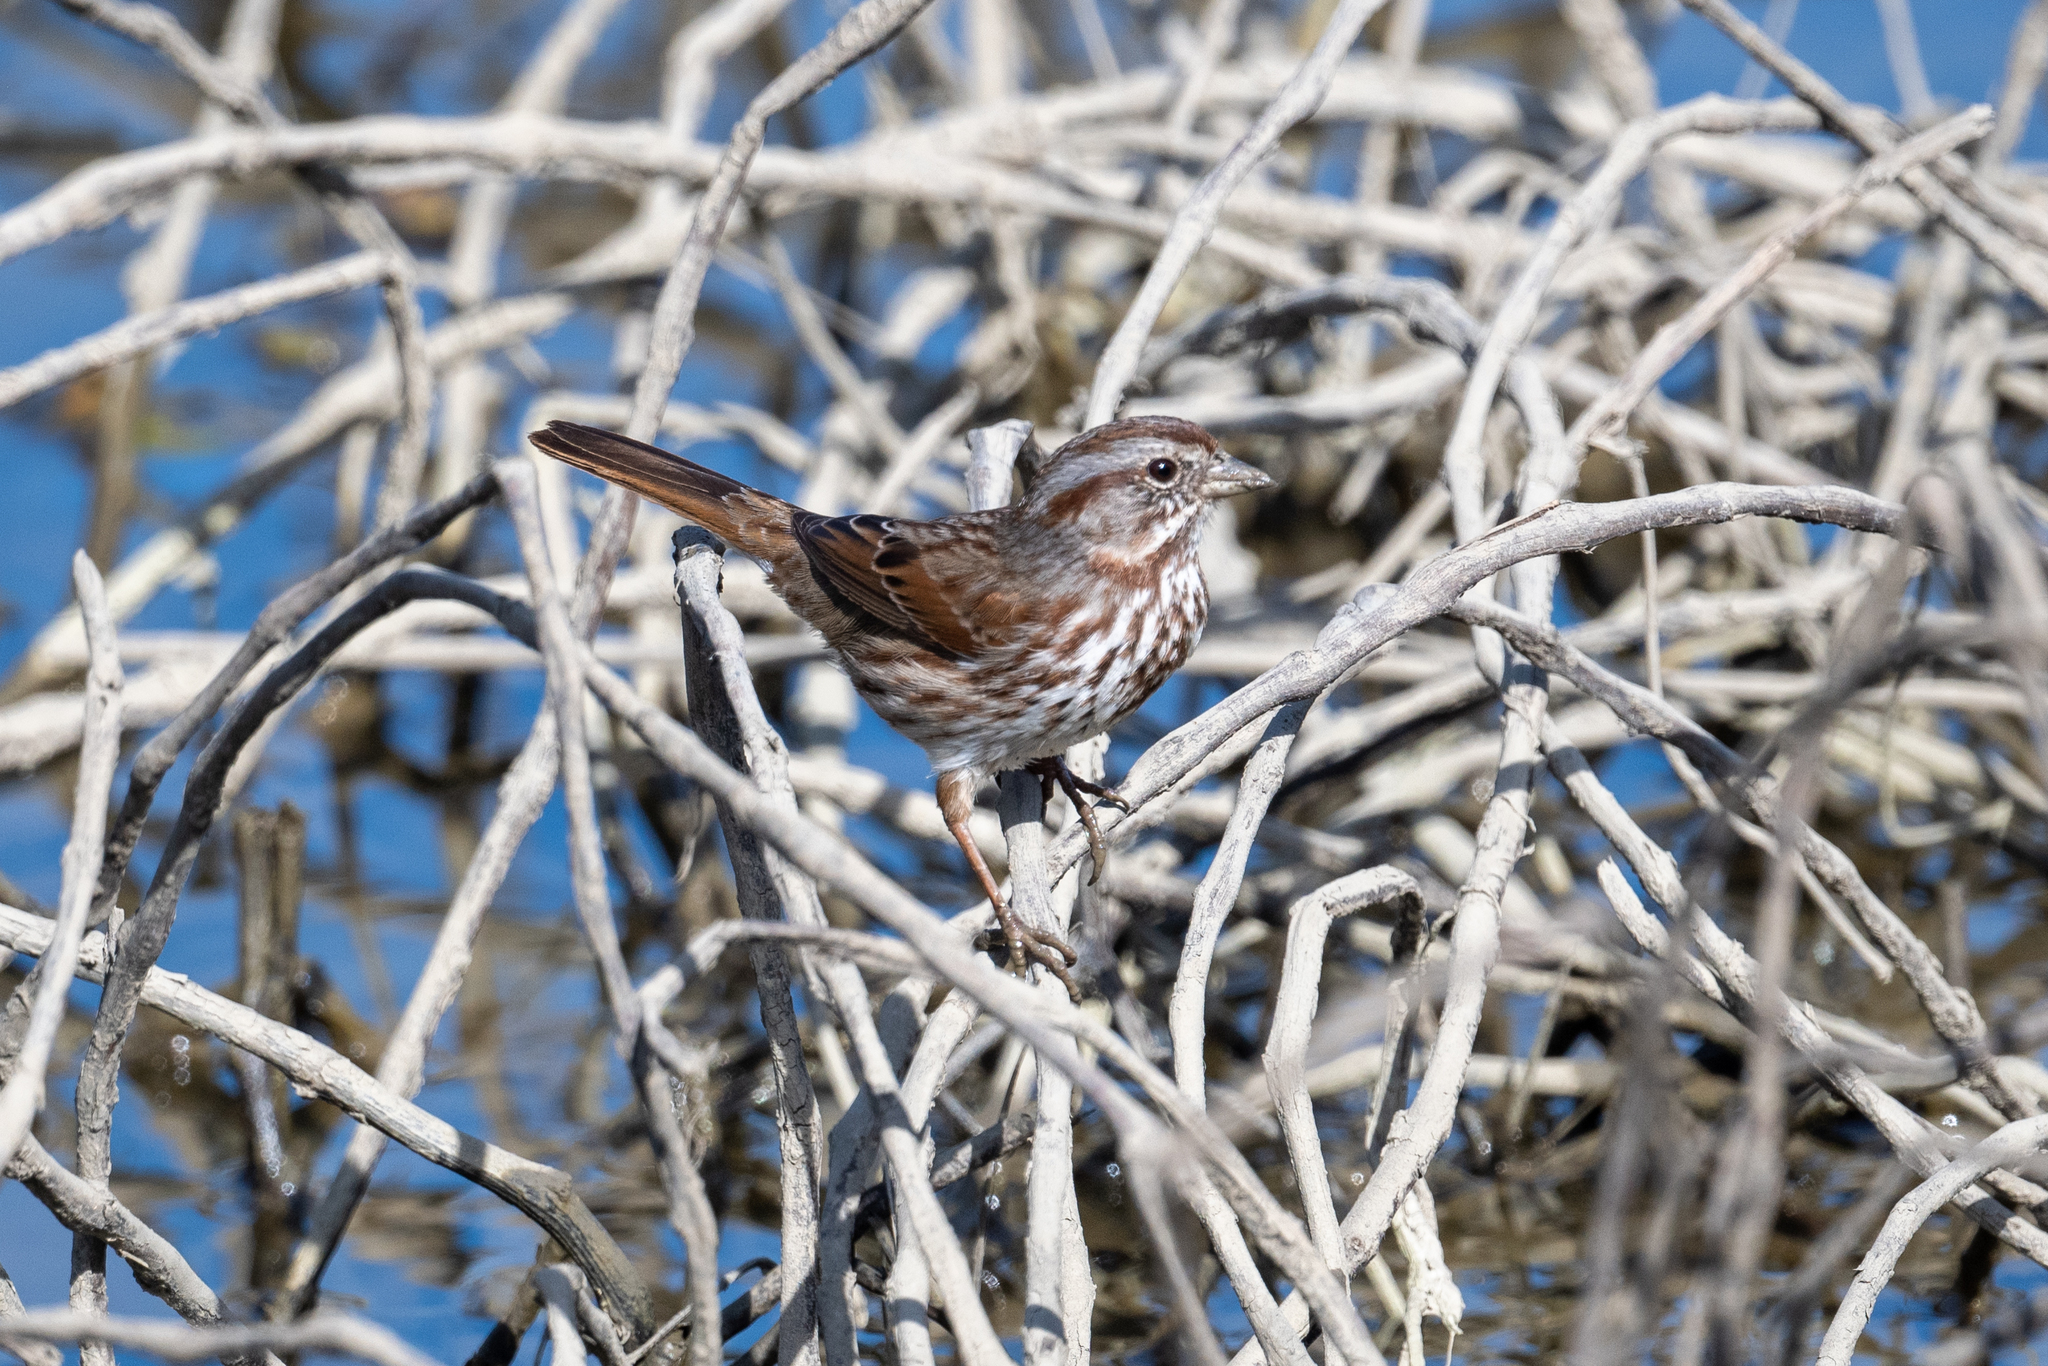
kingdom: Animalia
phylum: Chordata
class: Aves
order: Passeriformes
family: Passerellidae
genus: Melospiza
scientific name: Melospiza melodia
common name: Song sparrow
